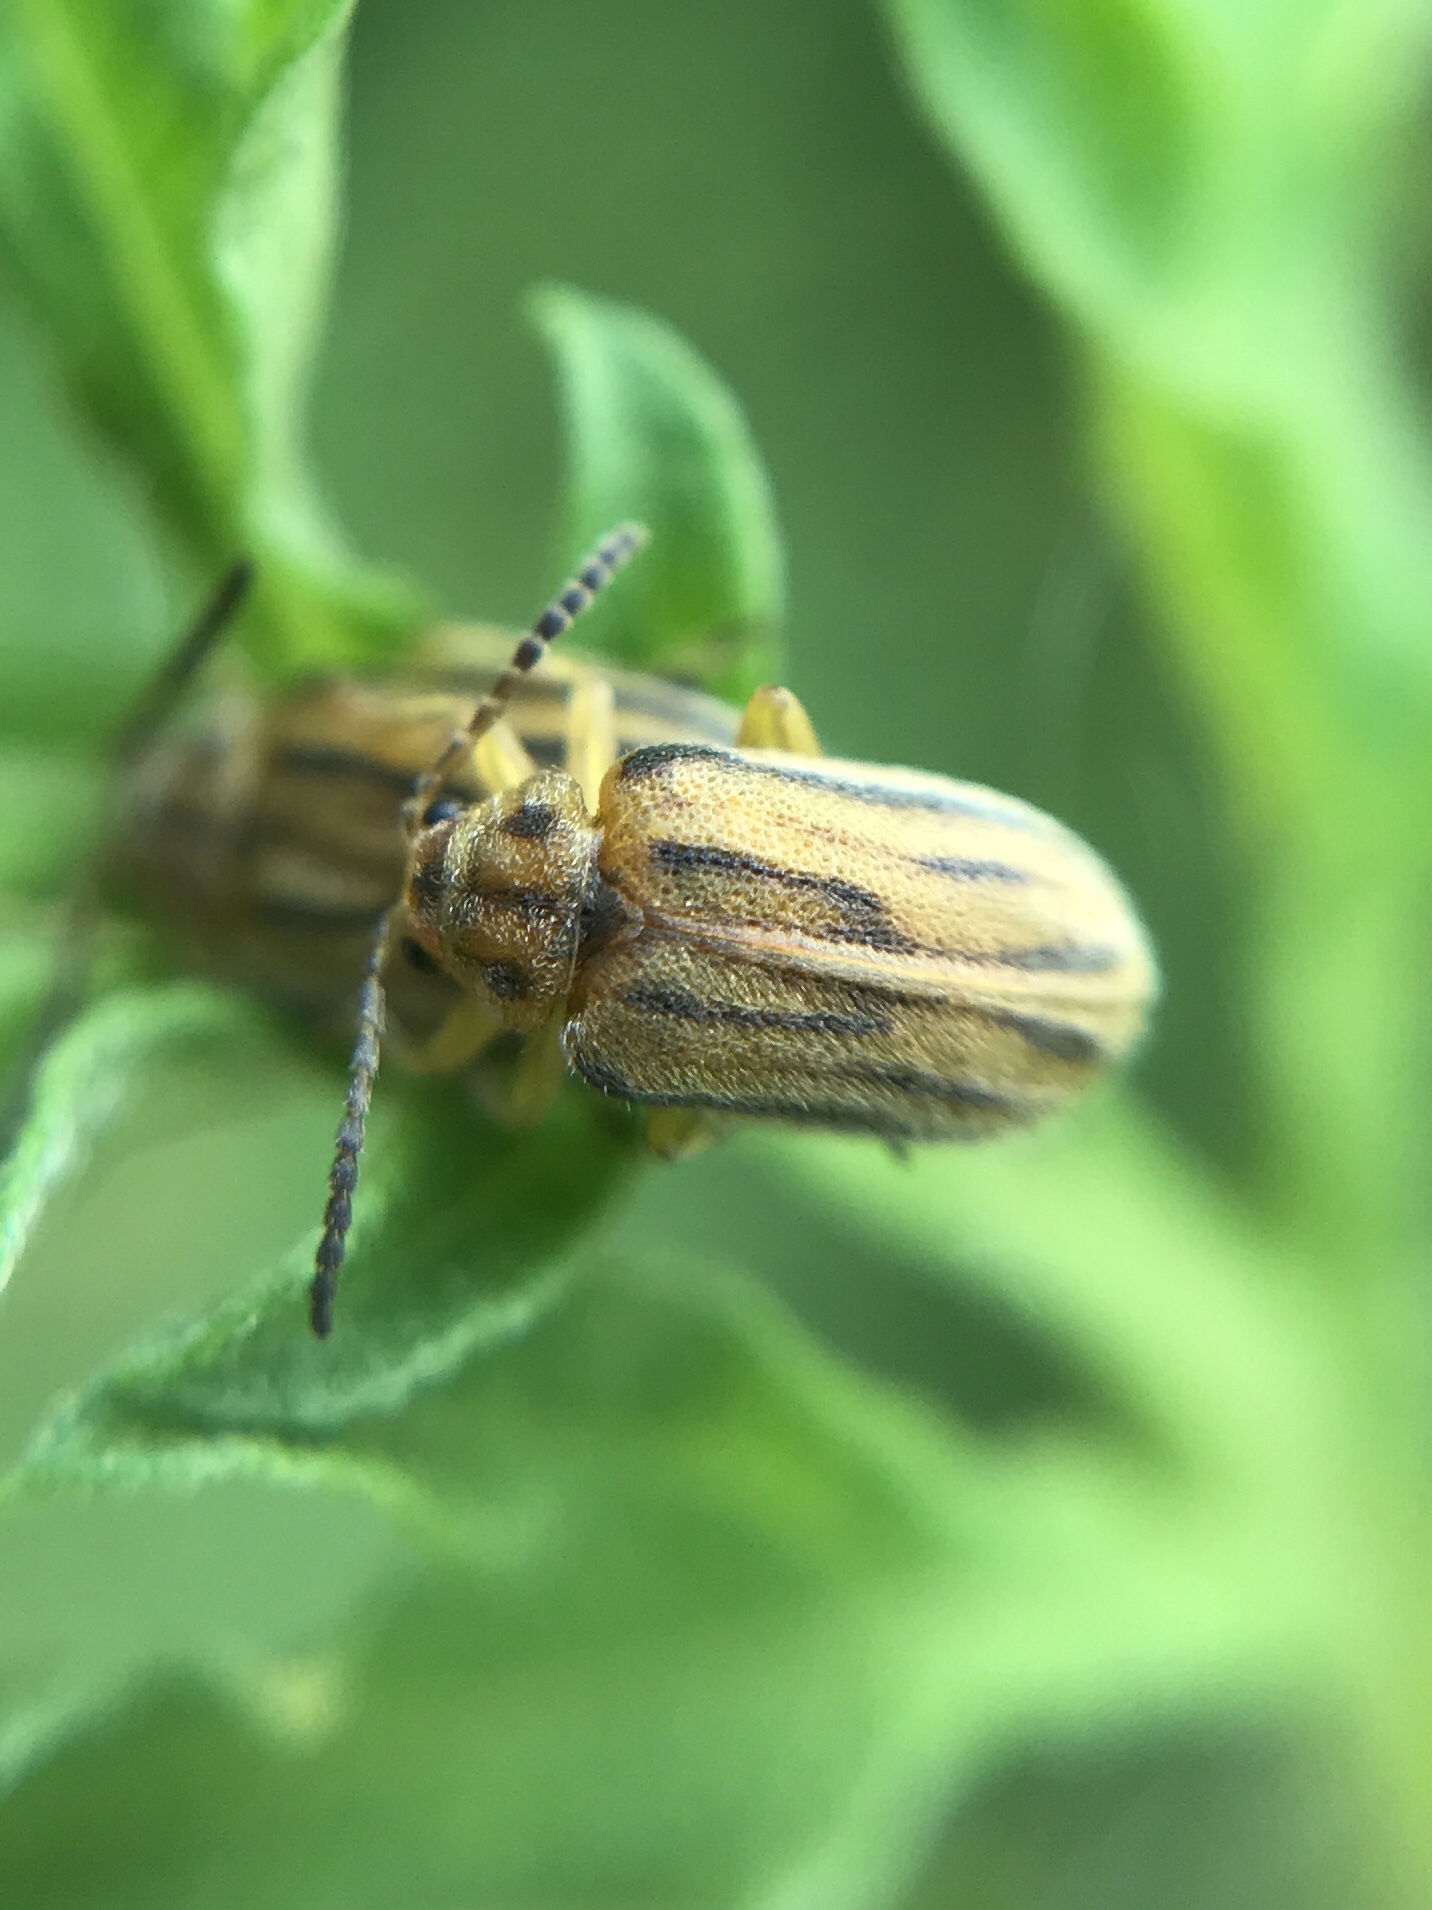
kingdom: Animalia
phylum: Arthropoda
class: Insecta
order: Coleoptera
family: Chrysomelidae
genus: Ophraella
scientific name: Ophraella communa
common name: Ragweed leaf beetle
